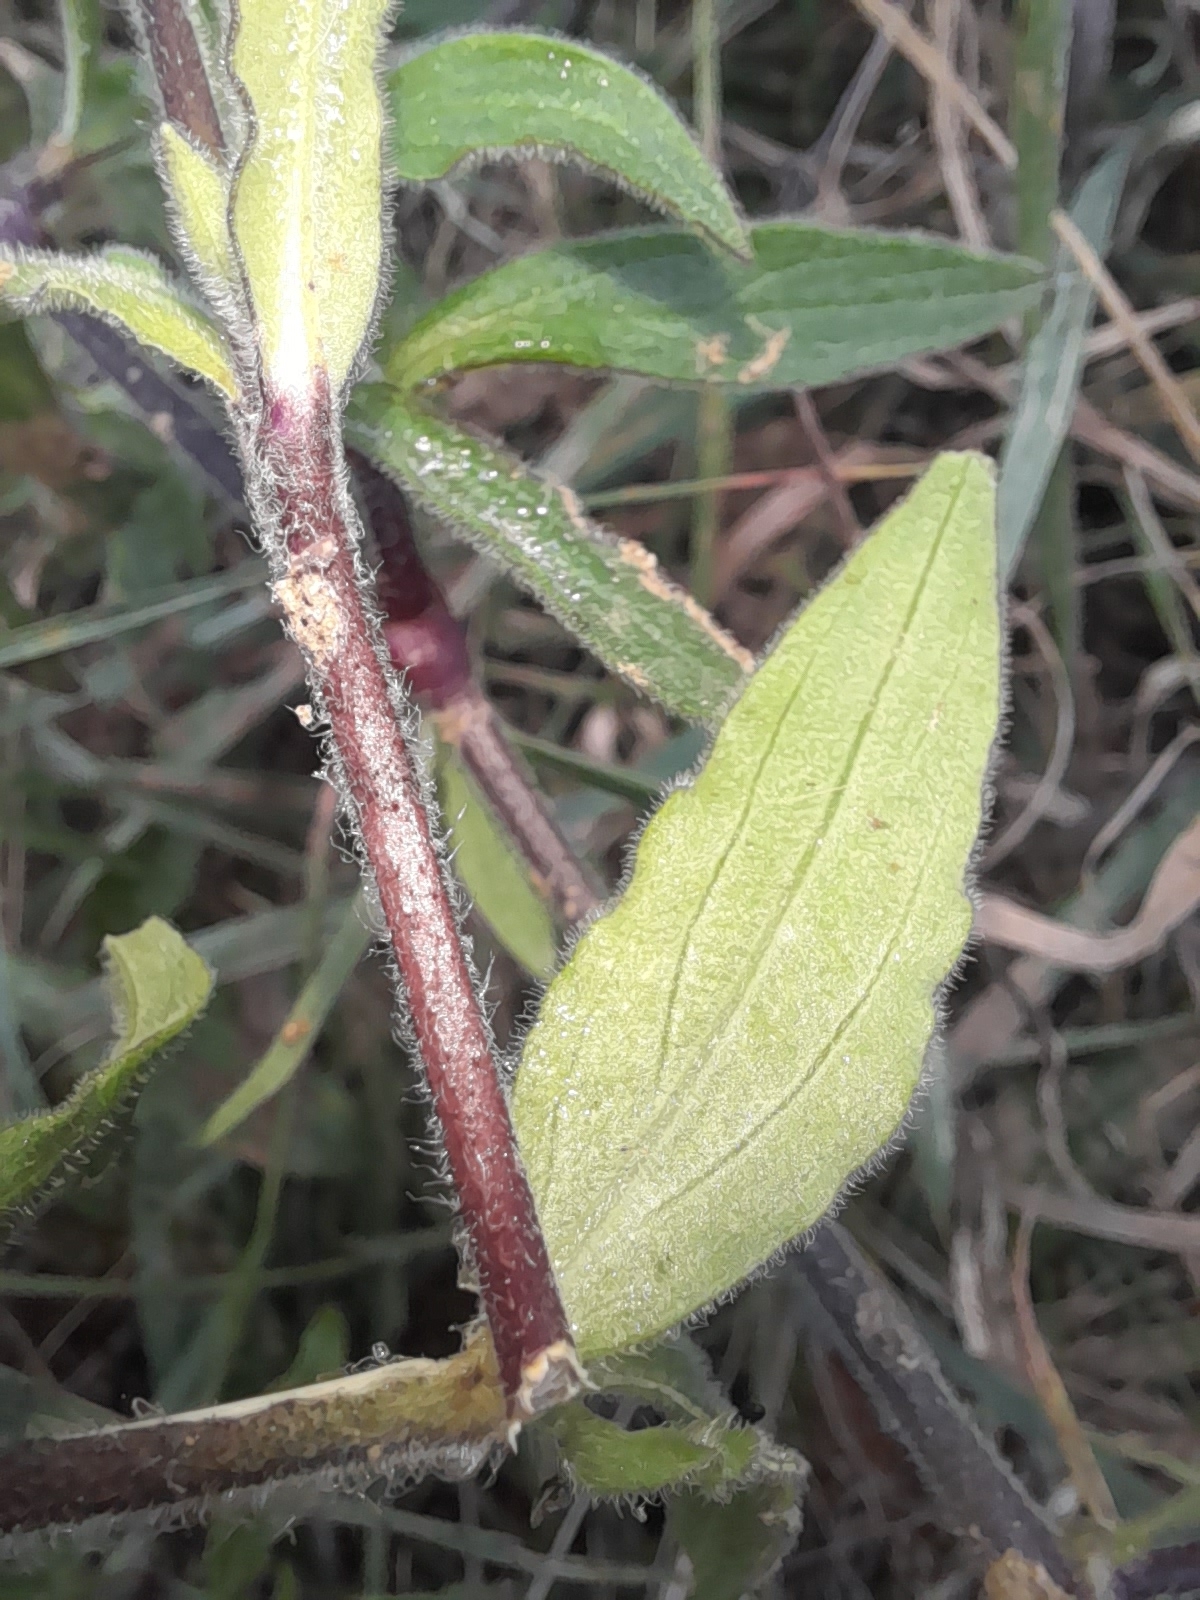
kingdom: Plantae
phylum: Tracheophyta
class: Magnoliopsida
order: Caryophyllales
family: Caryophyllaceae
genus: Silene
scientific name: Silene latifolia
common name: White campion
